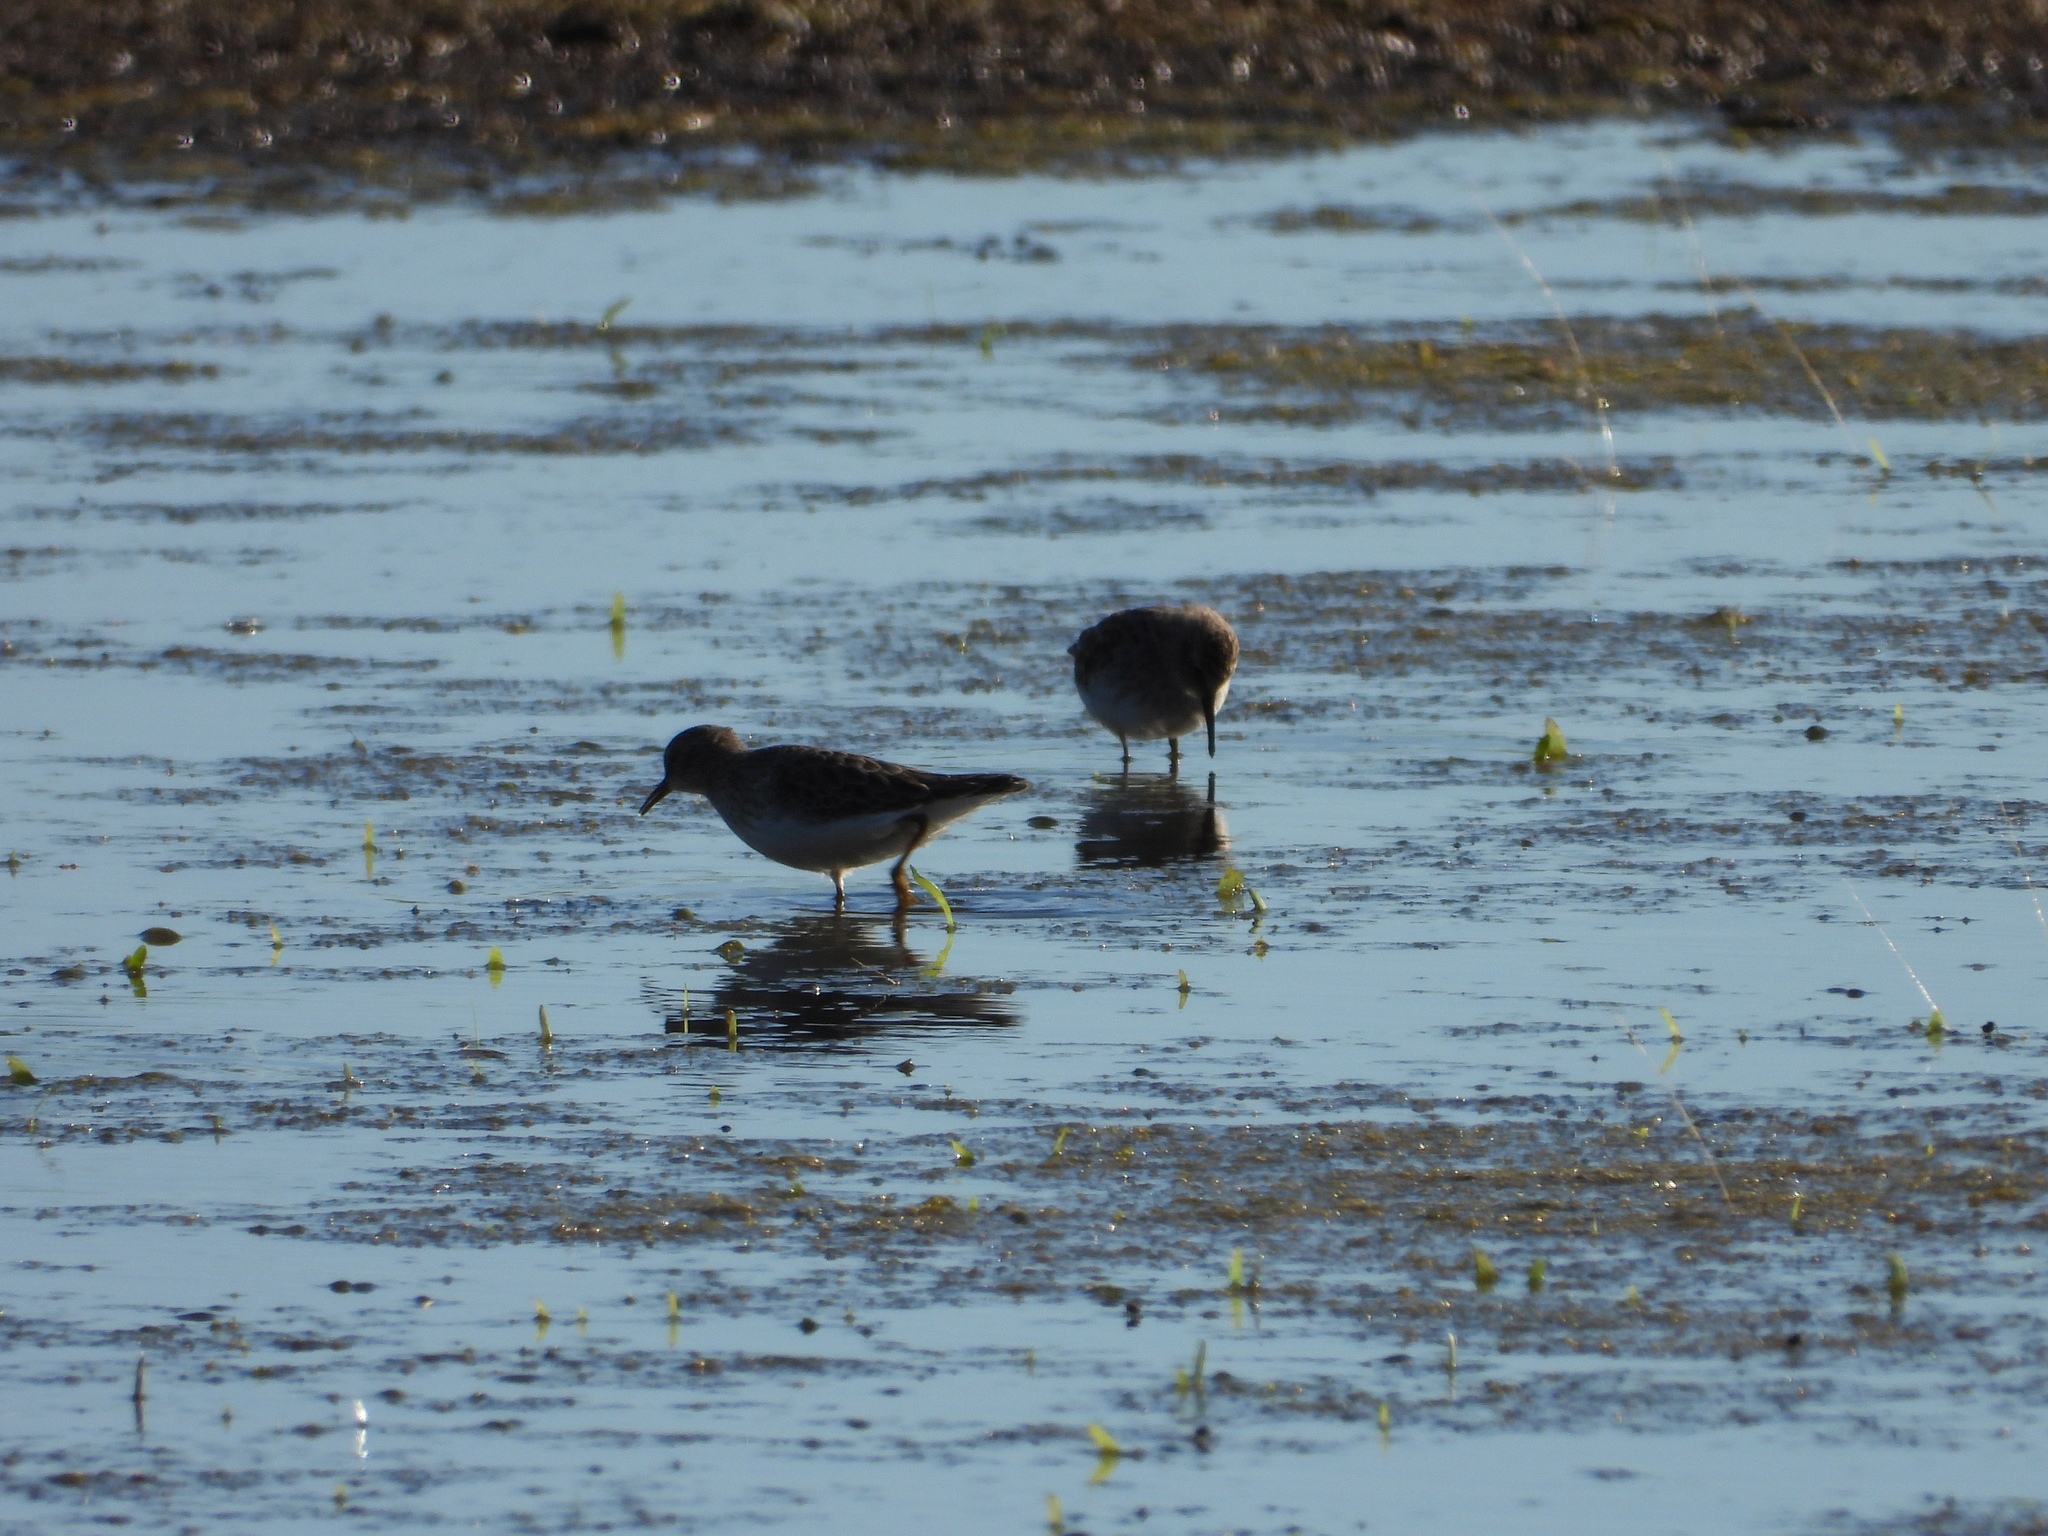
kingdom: Animalia
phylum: Chordata
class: Aves
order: Charadriiformes
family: Scolopacidae
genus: Calidris
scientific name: Calidris minutilla
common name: Least sandpiper
